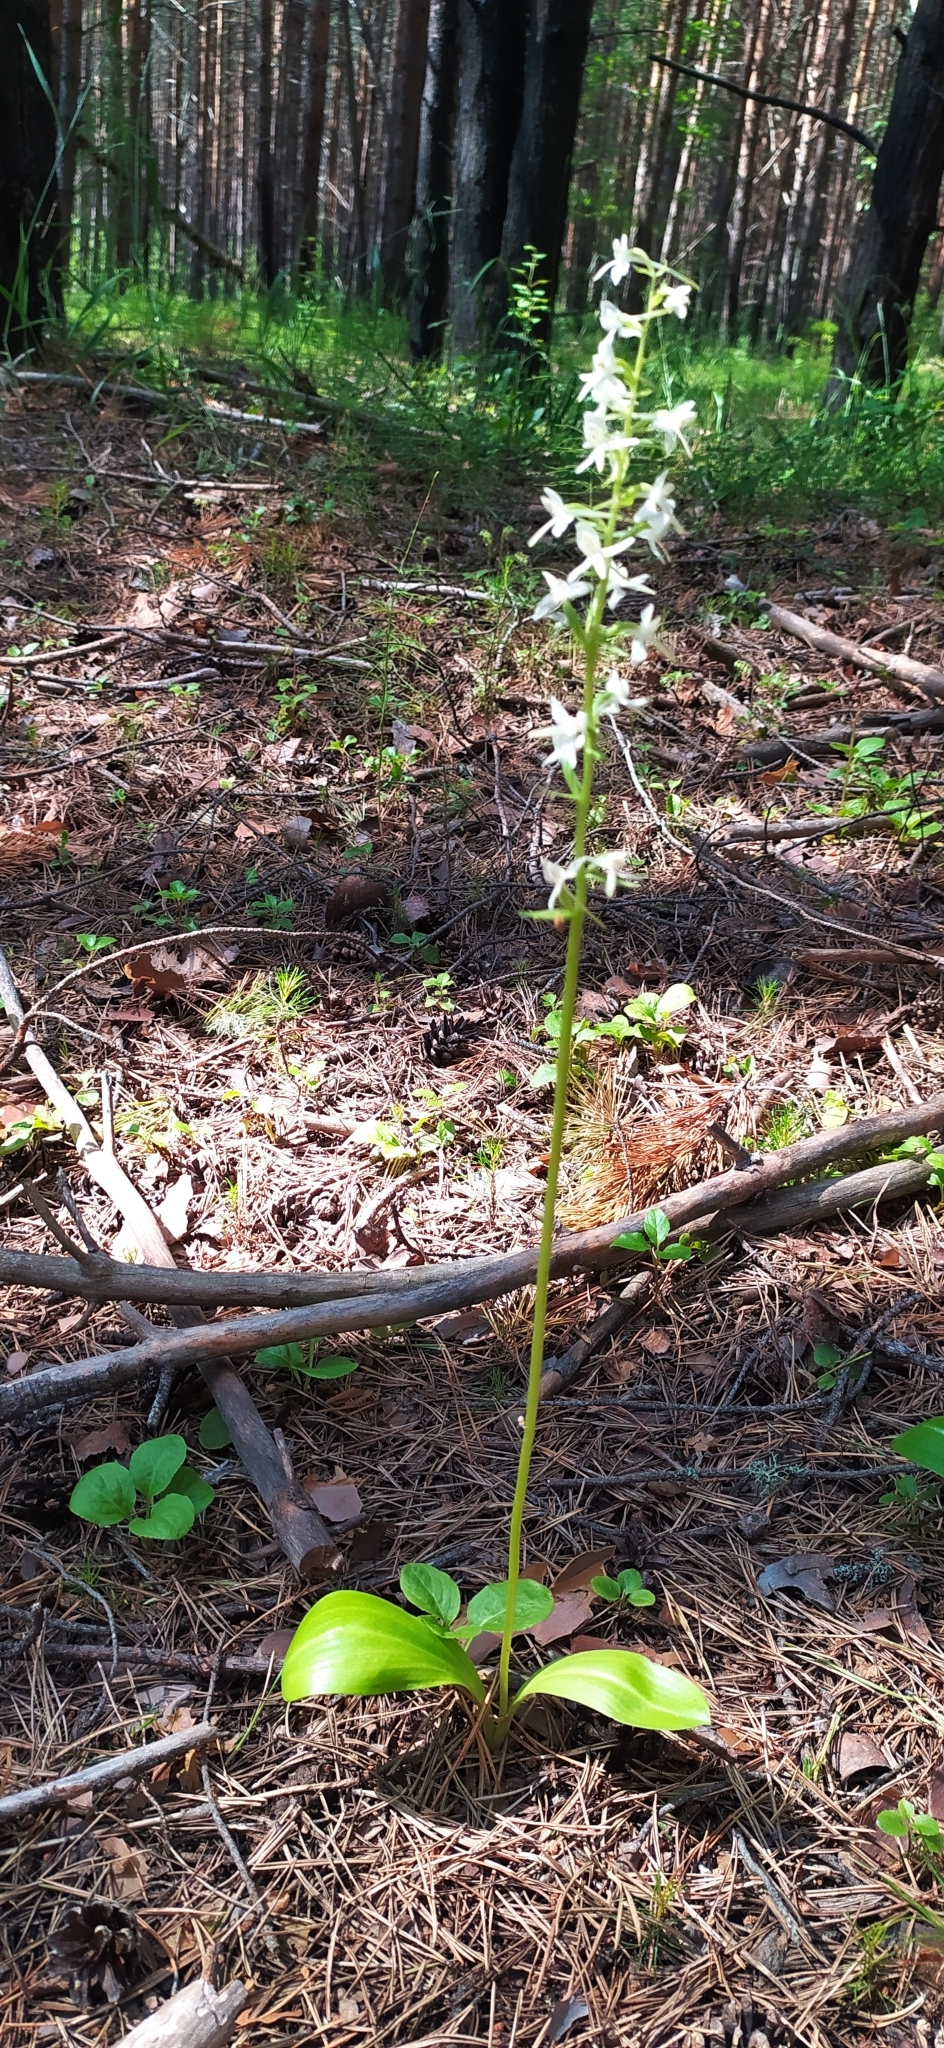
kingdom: Plantae
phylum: Tracheophyta
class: Liliopsida
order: Asparagales
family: Orchidaceae
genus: Platanthera
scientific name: Platanthera bifolia
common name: Lesser butterfly-orchid
